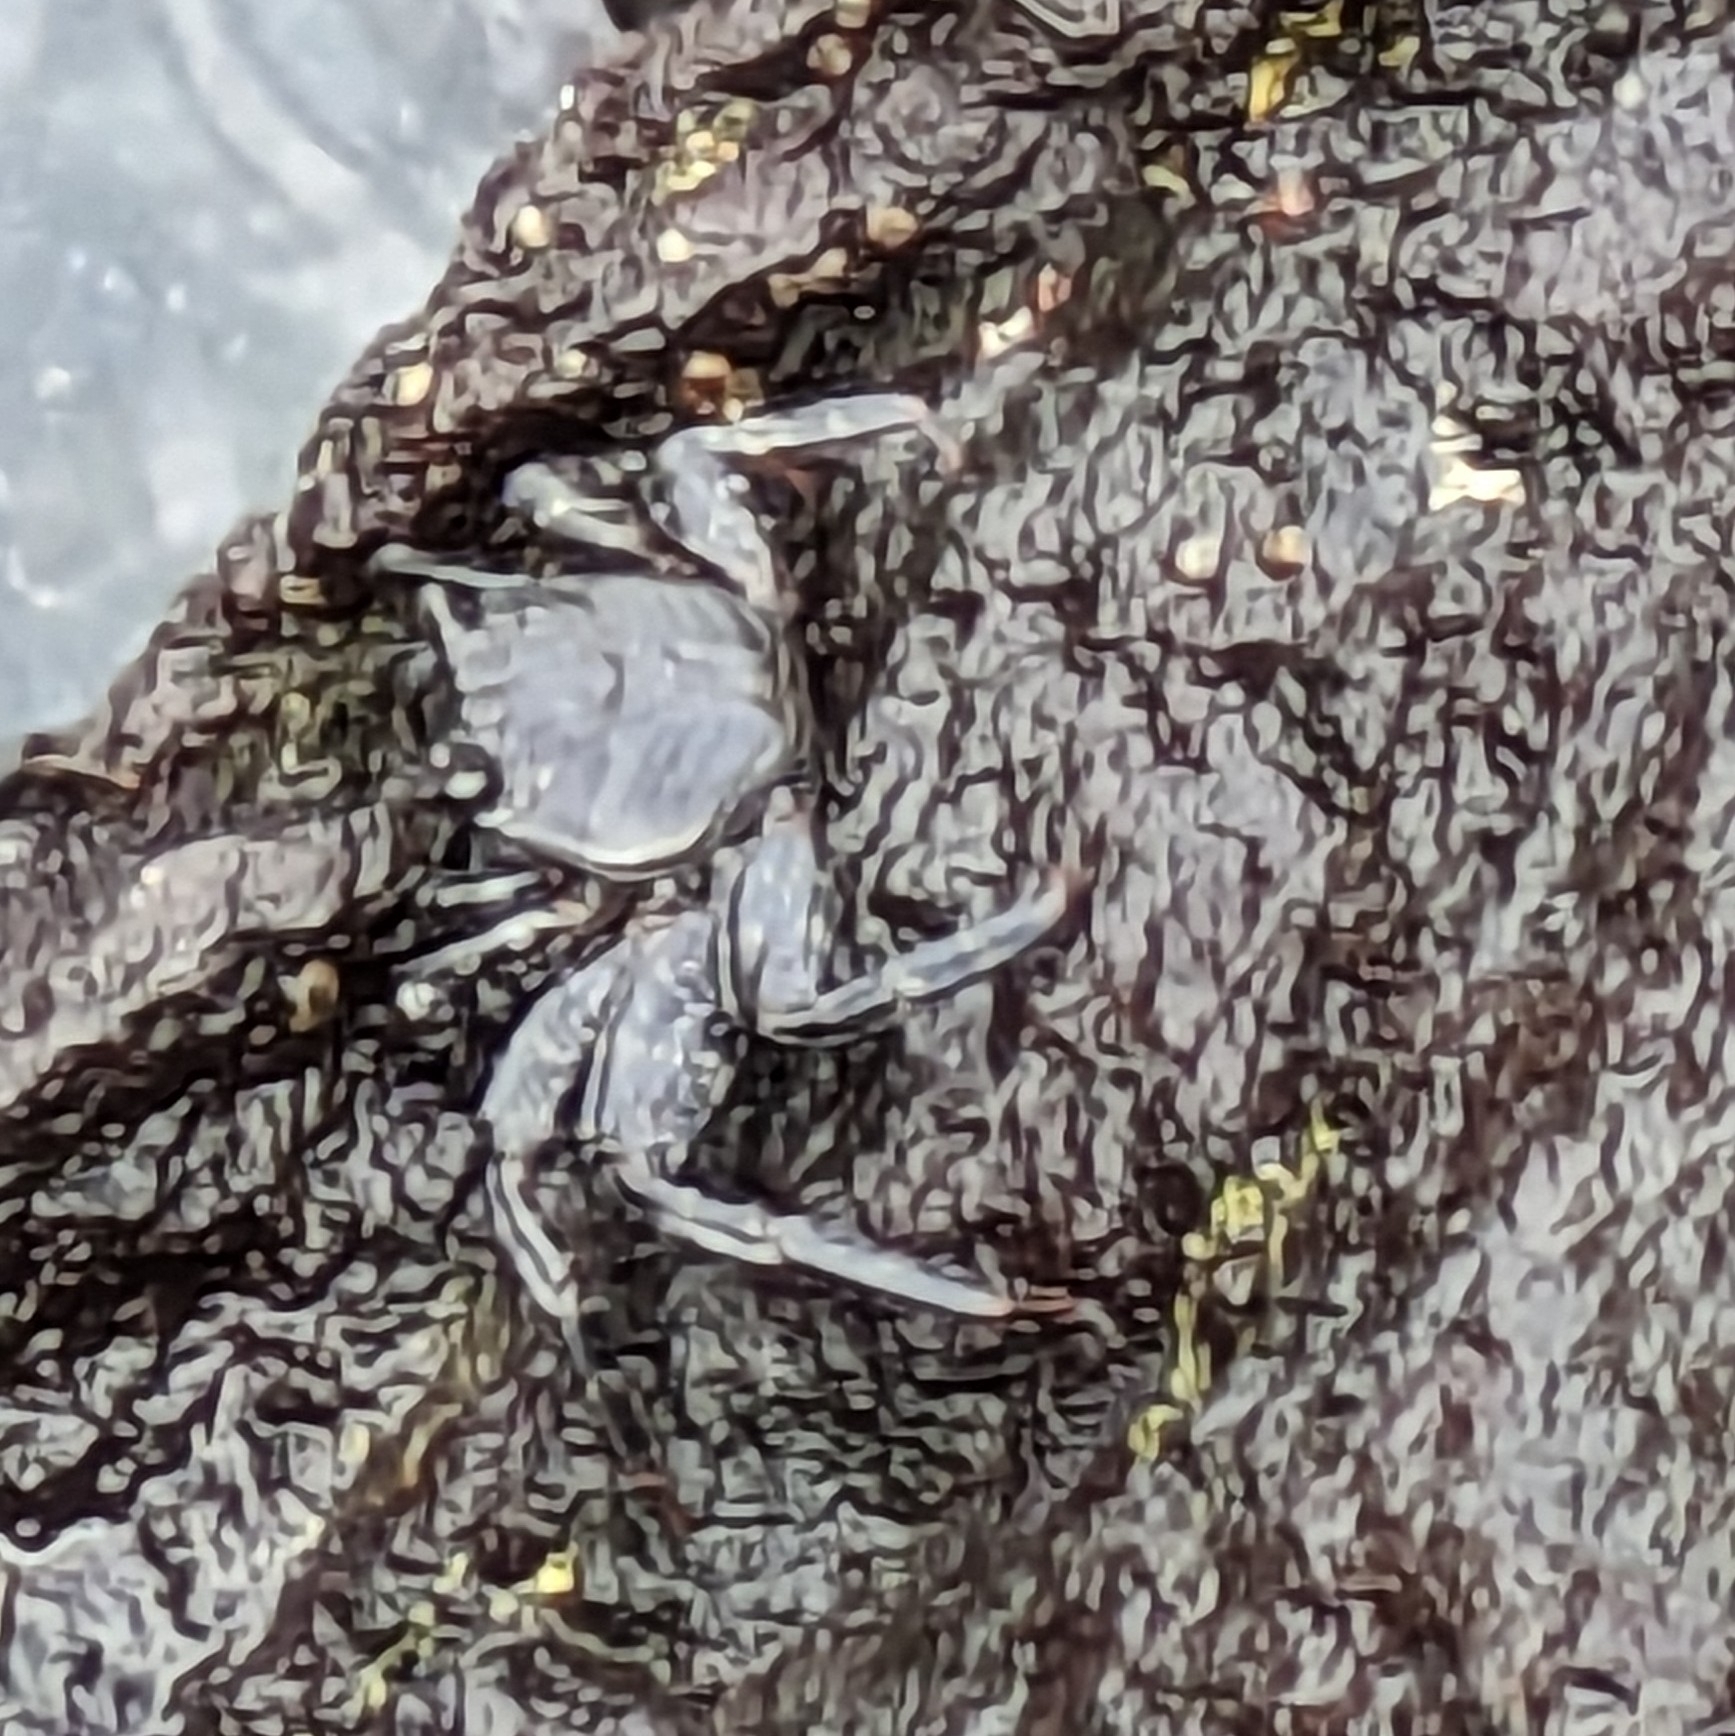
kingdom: Animalia
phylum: Arthropoda
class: Malacostraca
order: Decapoda
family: Grapsidae
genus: Grapsus
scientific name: Grapsus adscensionis
